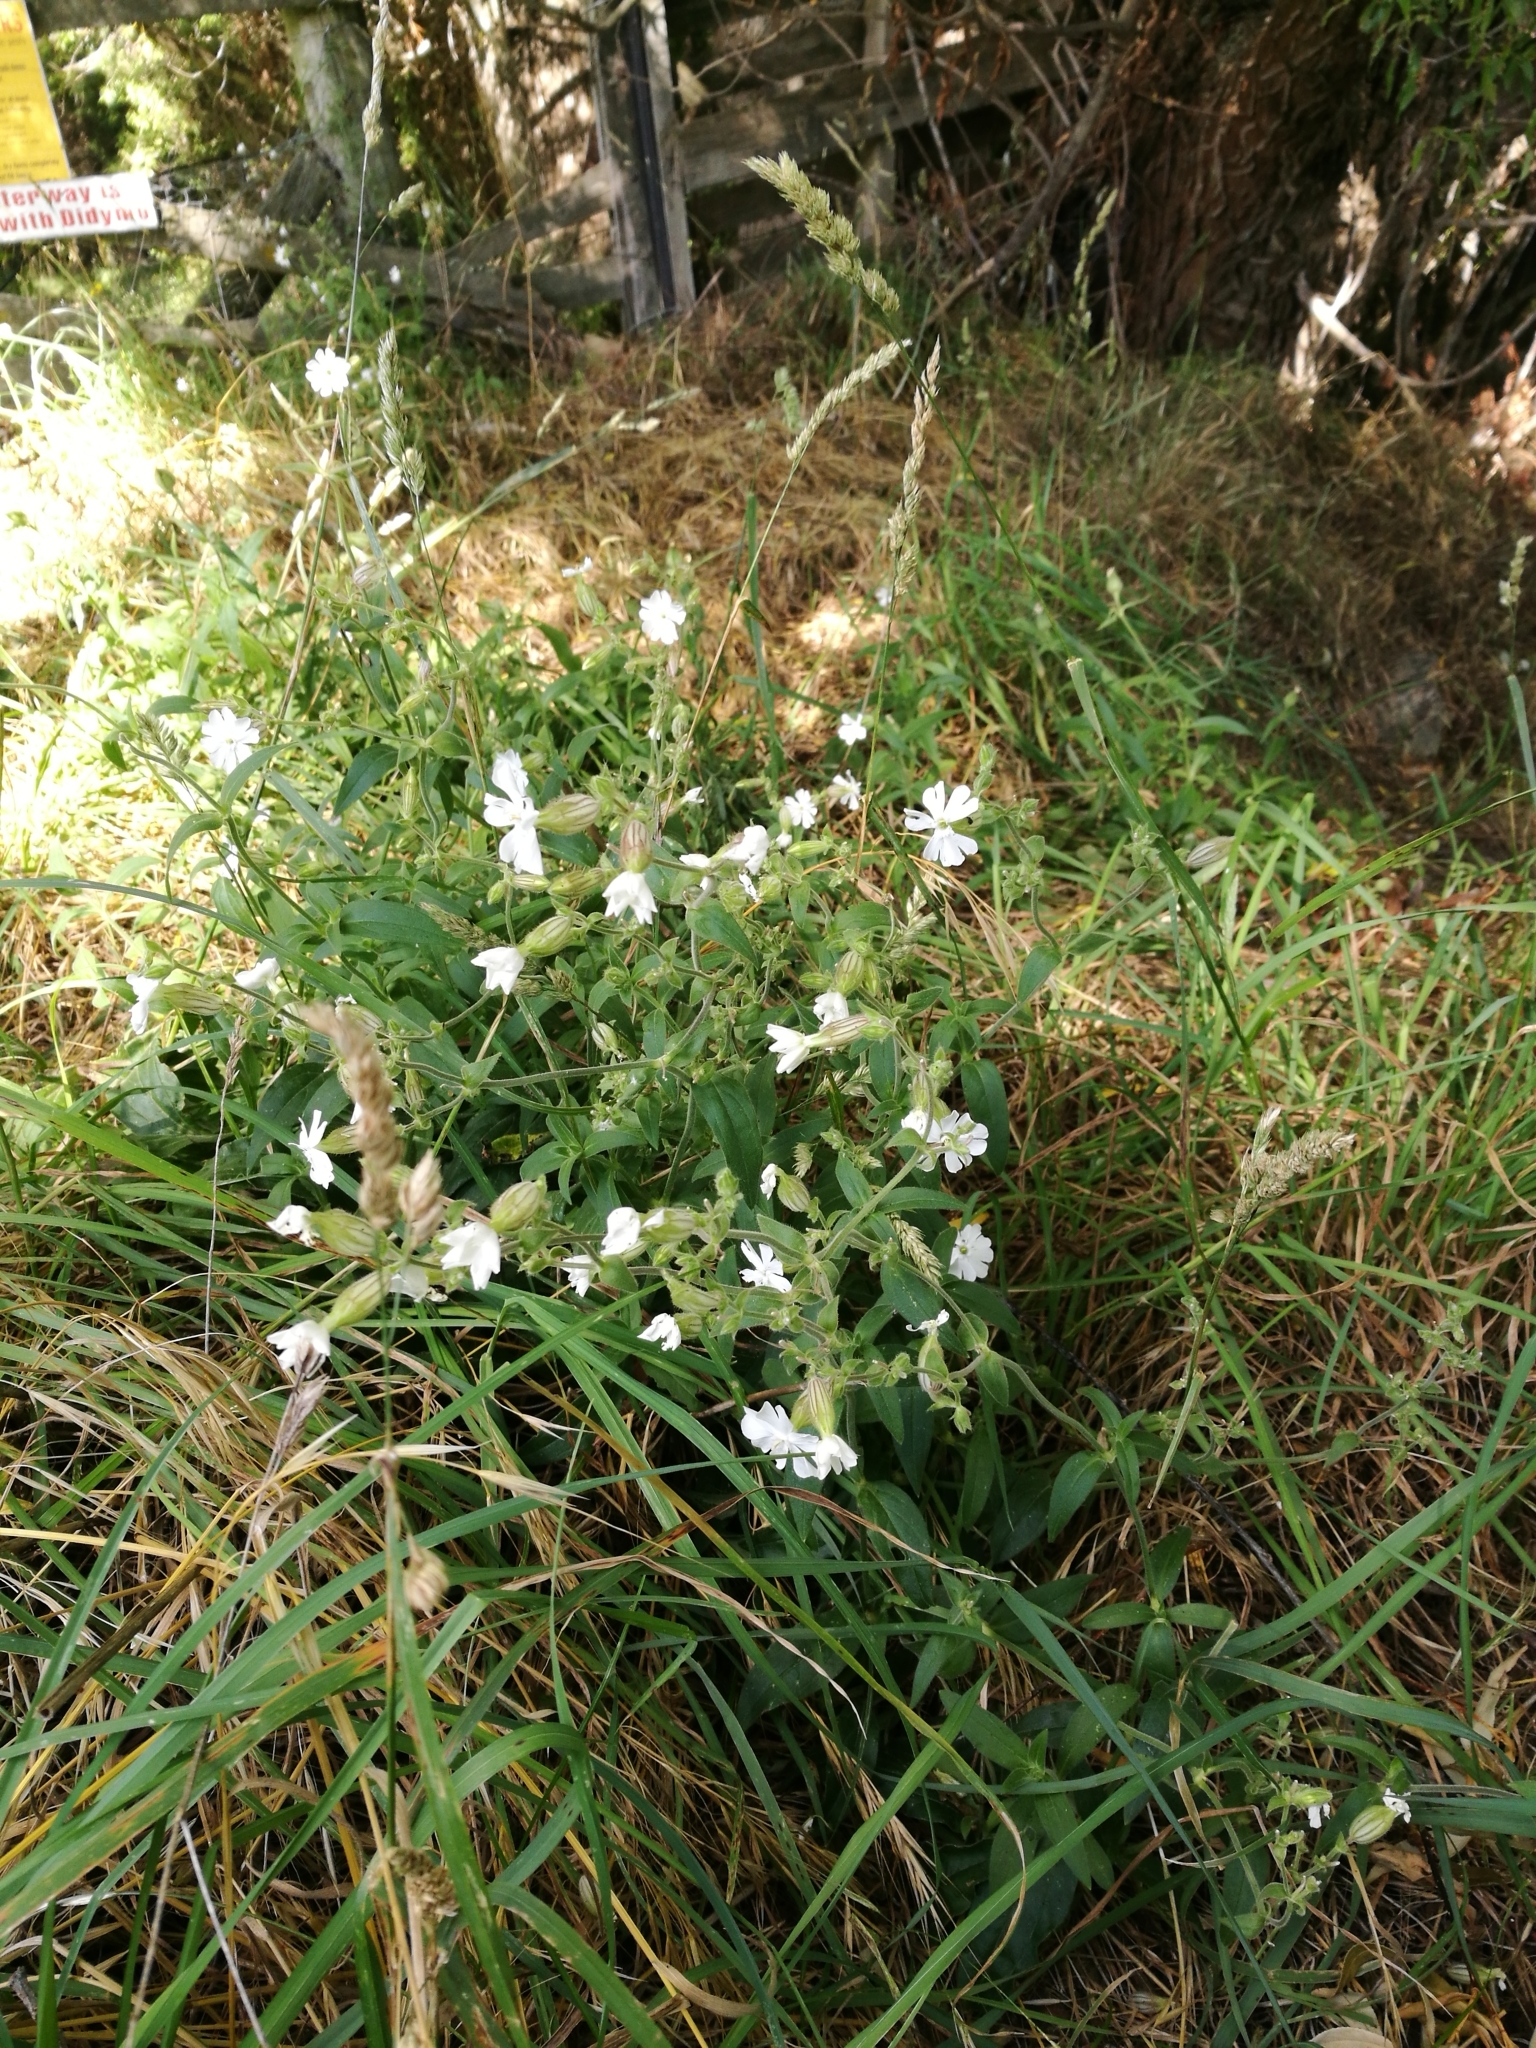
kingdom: Plantae
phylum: Tracheophyta
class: Magnoliopsida
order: Caryophyllales
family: Caryophyllaceae
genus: Silene
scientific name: Silene latifolia
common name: White campion
